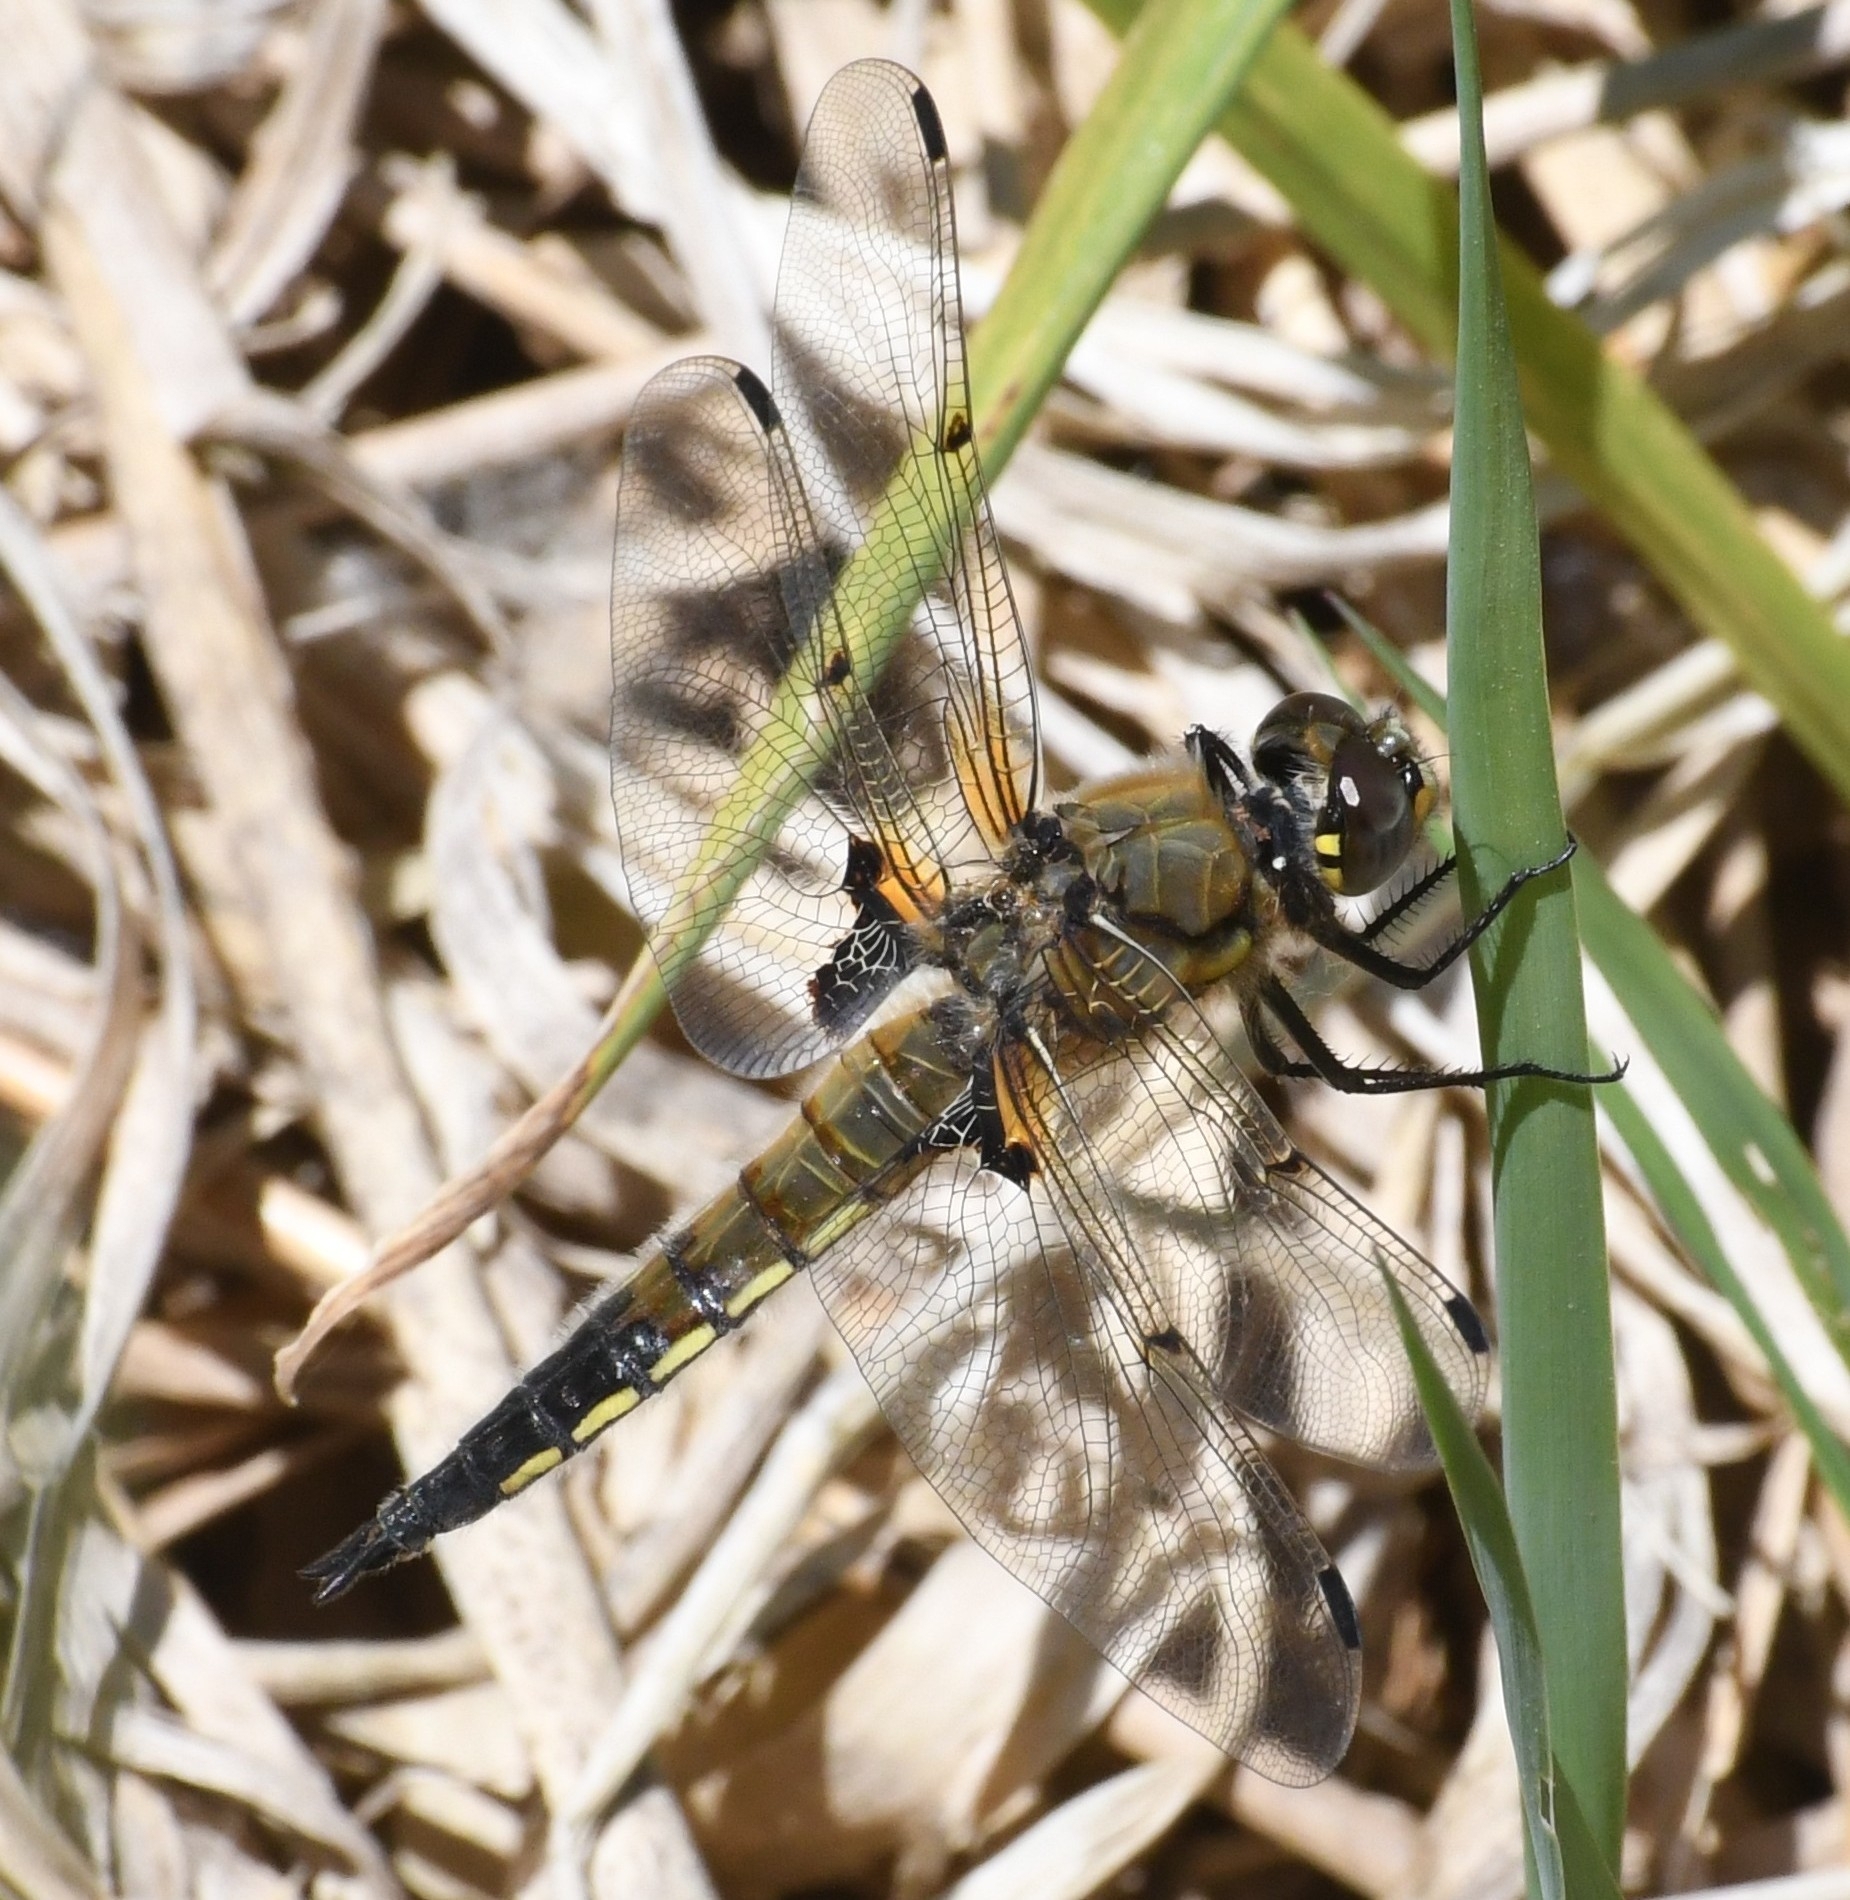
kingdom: Animalia
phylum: Arthropoda
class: Insecta
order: Odonata
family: Libellulidae
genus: Libellula
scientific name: Libellula quadrimaculata
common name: Four-spotted chaser
